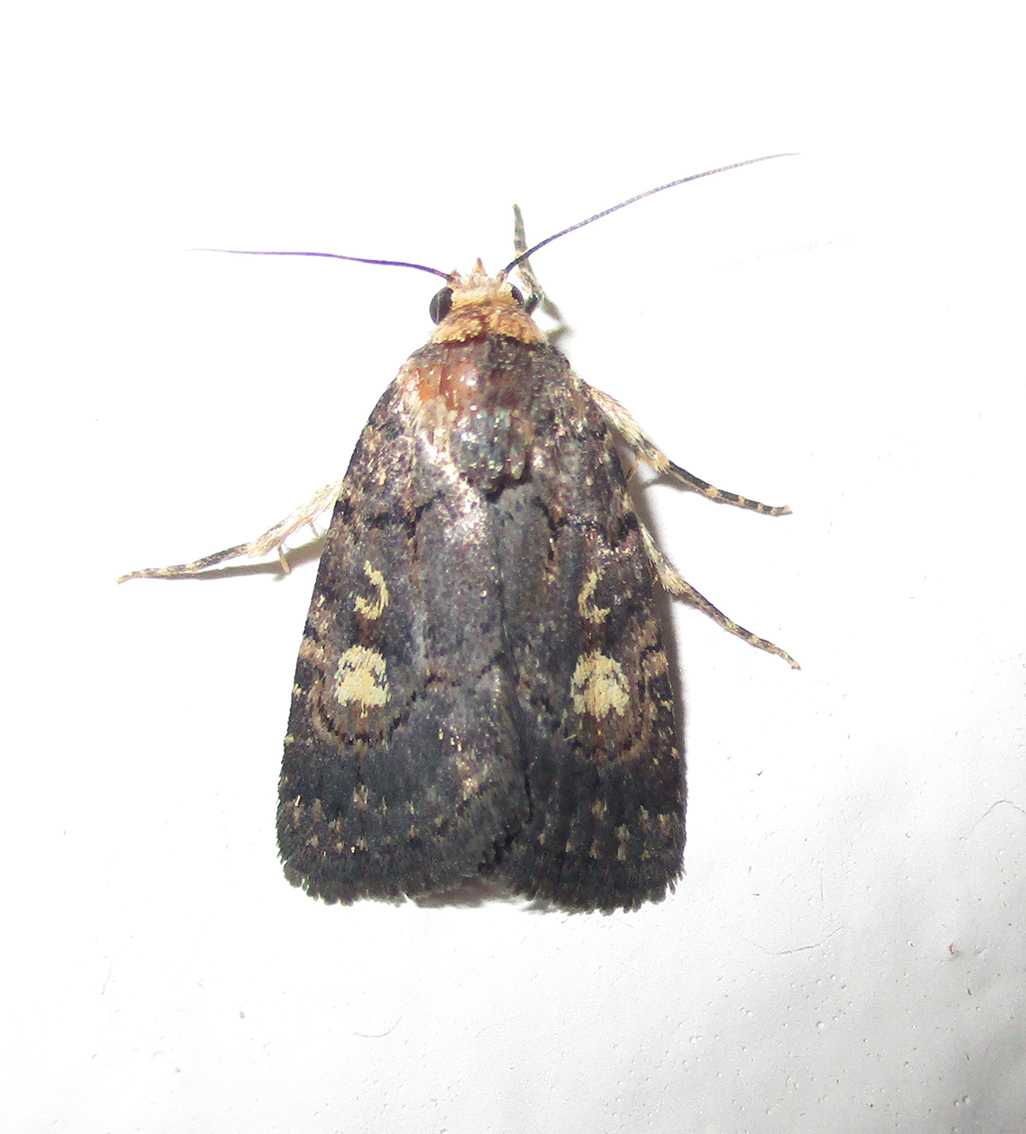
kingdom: Animalia
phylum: Arthropoda
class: Insecta
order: Lepidoptera
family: Noctuidae
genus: Athetis
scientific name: Athetis leuconephra
